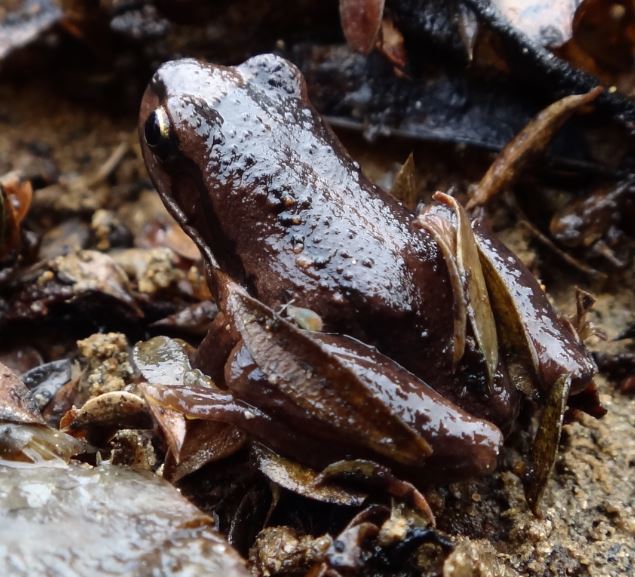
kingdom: Animalia
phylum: Chordata
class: Amphibia
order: Anura
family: Pelodryadidae
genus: Litoria
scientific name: Litoria ewingii
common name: Southern brown tree frog
